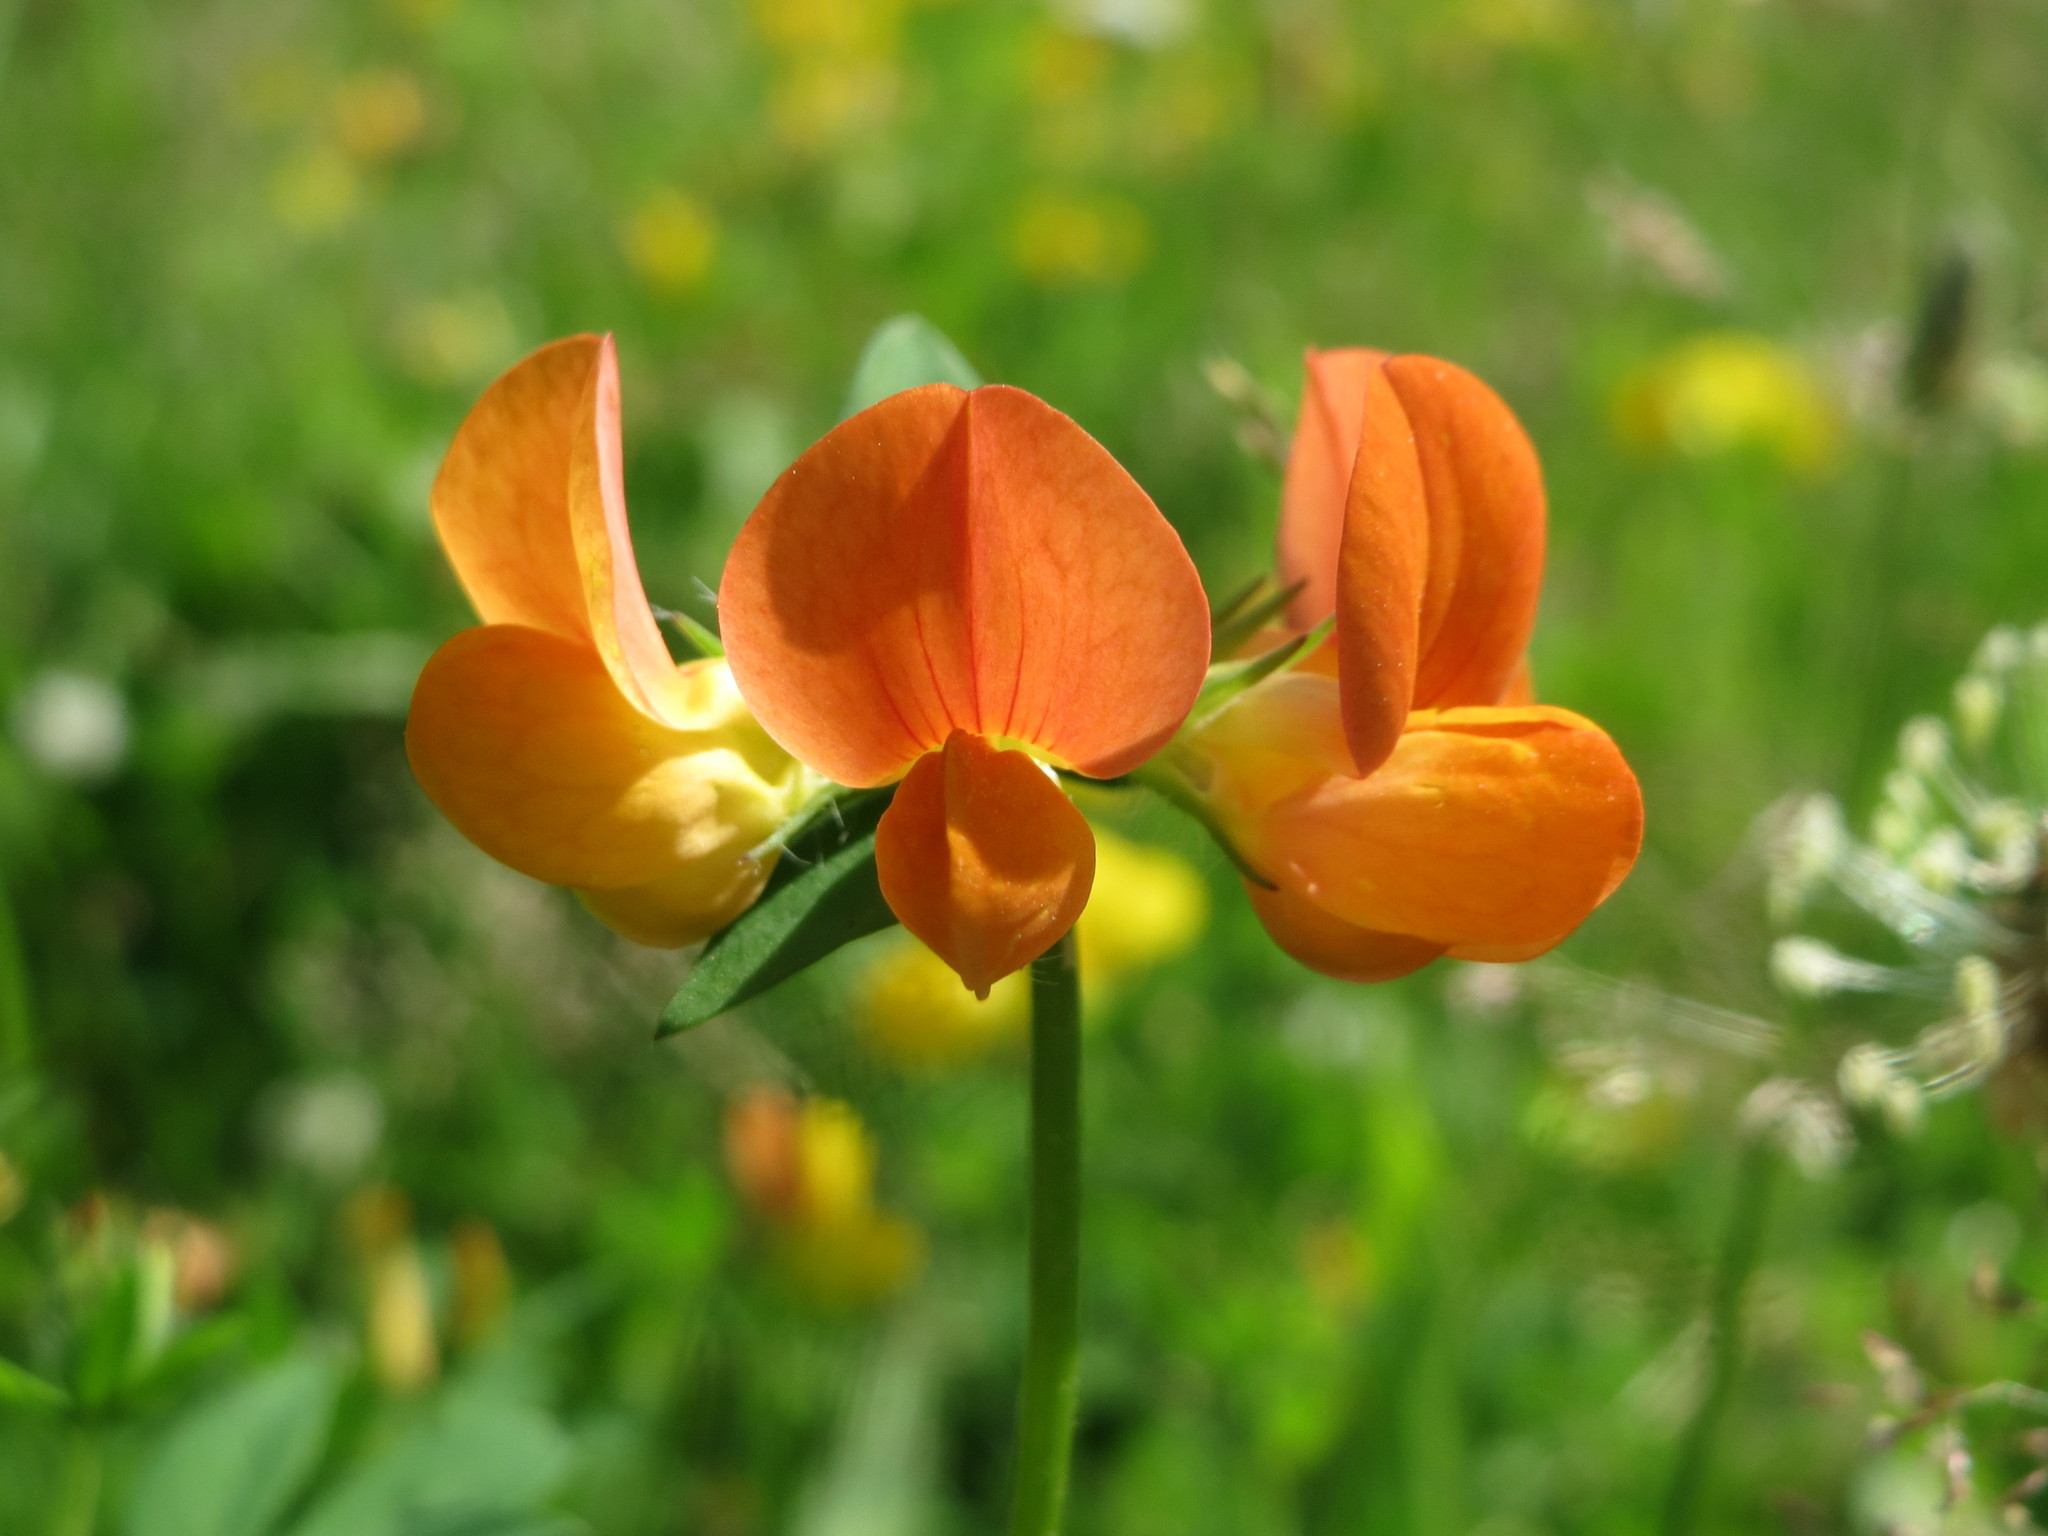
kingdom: Plantae
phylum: Tracheophyta
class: Magnoliopsida
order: Fabales
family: Fabaceae
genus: Lotus
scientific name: Lotus corniculatus
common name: Common bird's-foot-trefoil
